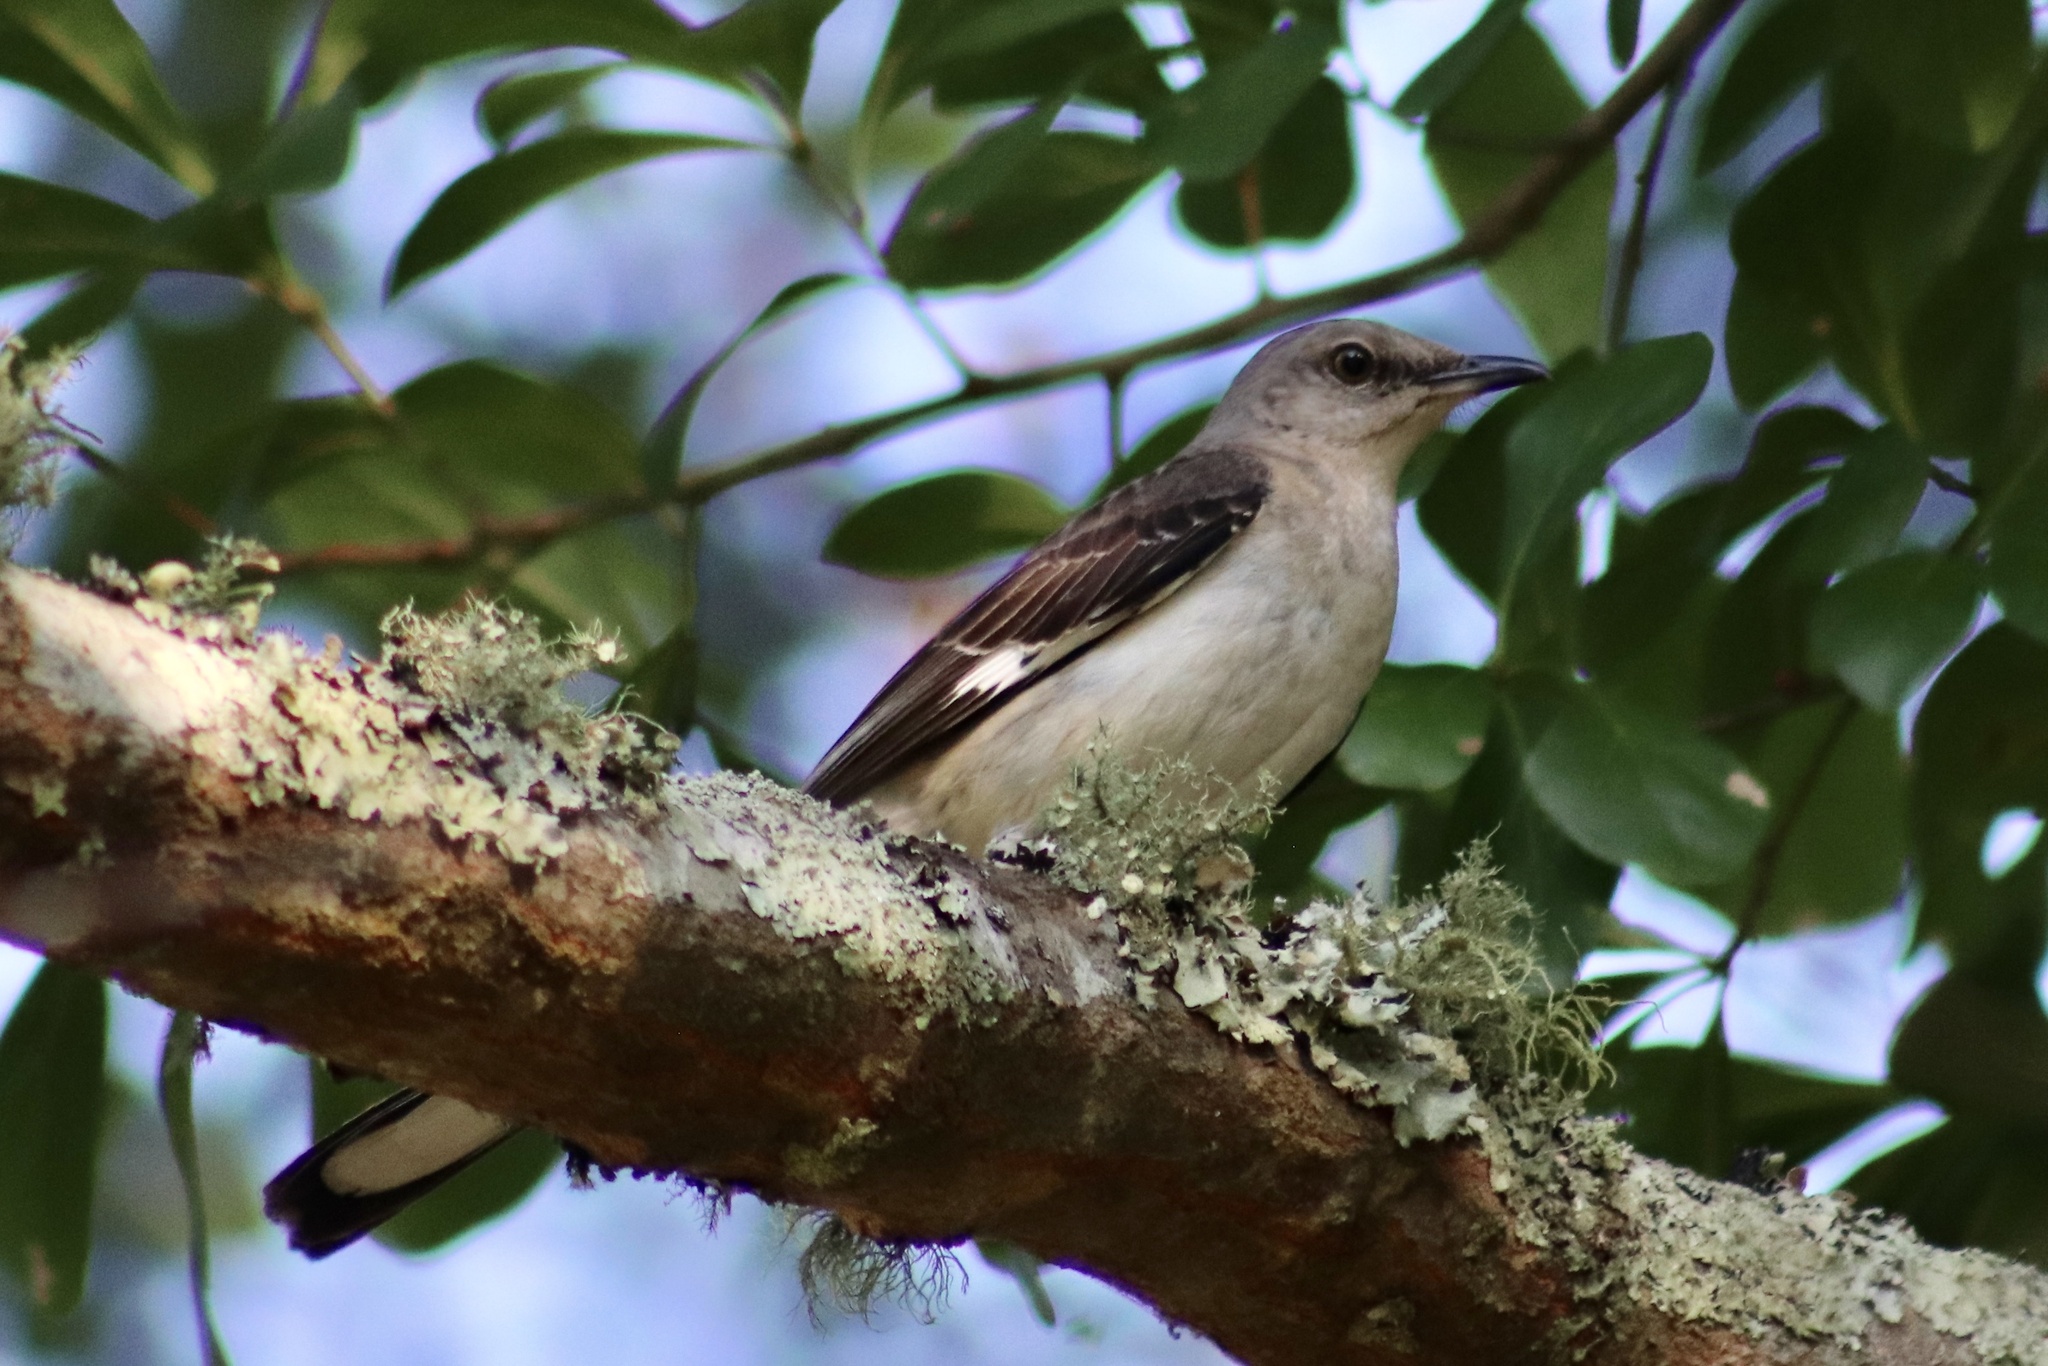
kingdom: Animalia
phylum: Chordata
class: Aves
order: Passeriformes
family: Mimidae
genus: Mimus
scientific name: Mimus polyglottos
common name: Northern mockingbird
